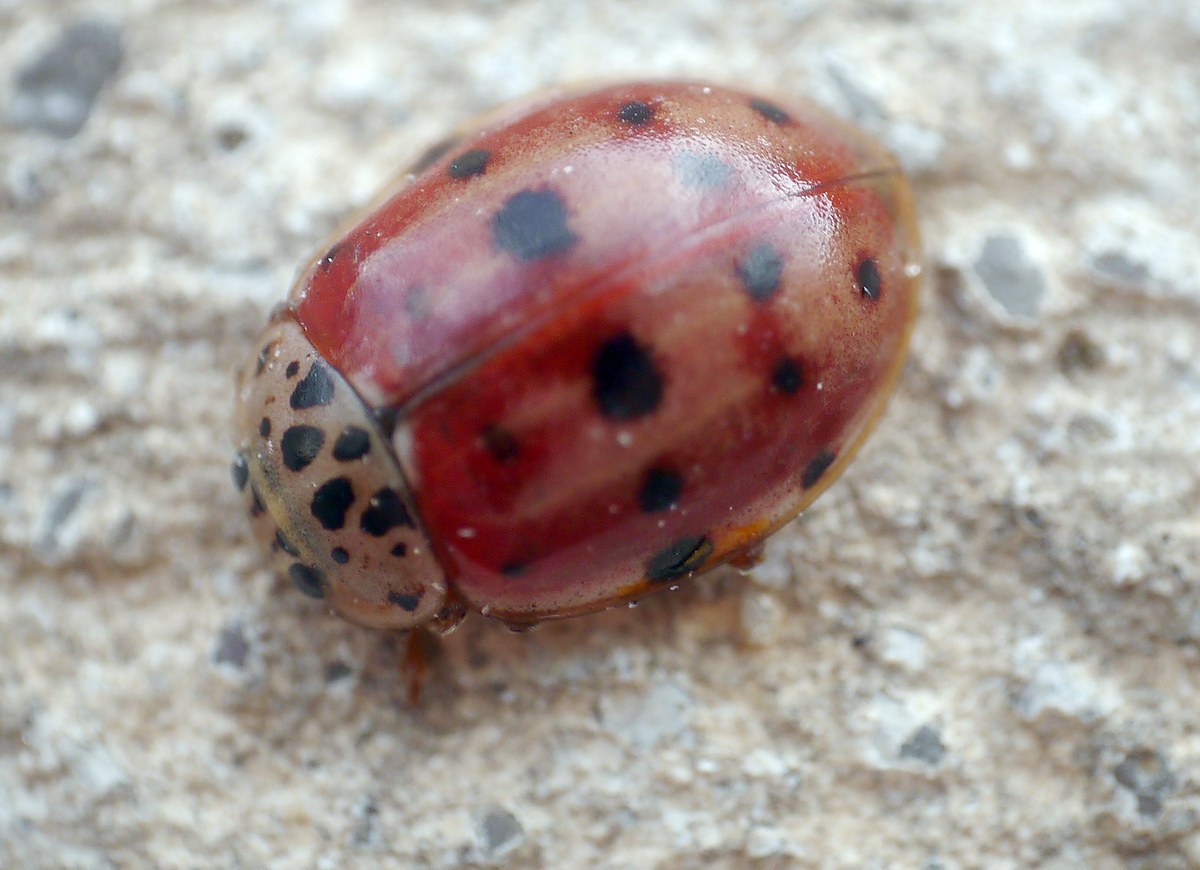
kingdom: Animalia
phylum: Arthropoda
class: Insecta
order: Coleoptera
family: Coccinellidae
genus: Harmonia
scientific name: Harmonia quadripunctata
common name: Cream-streaked ladybird
